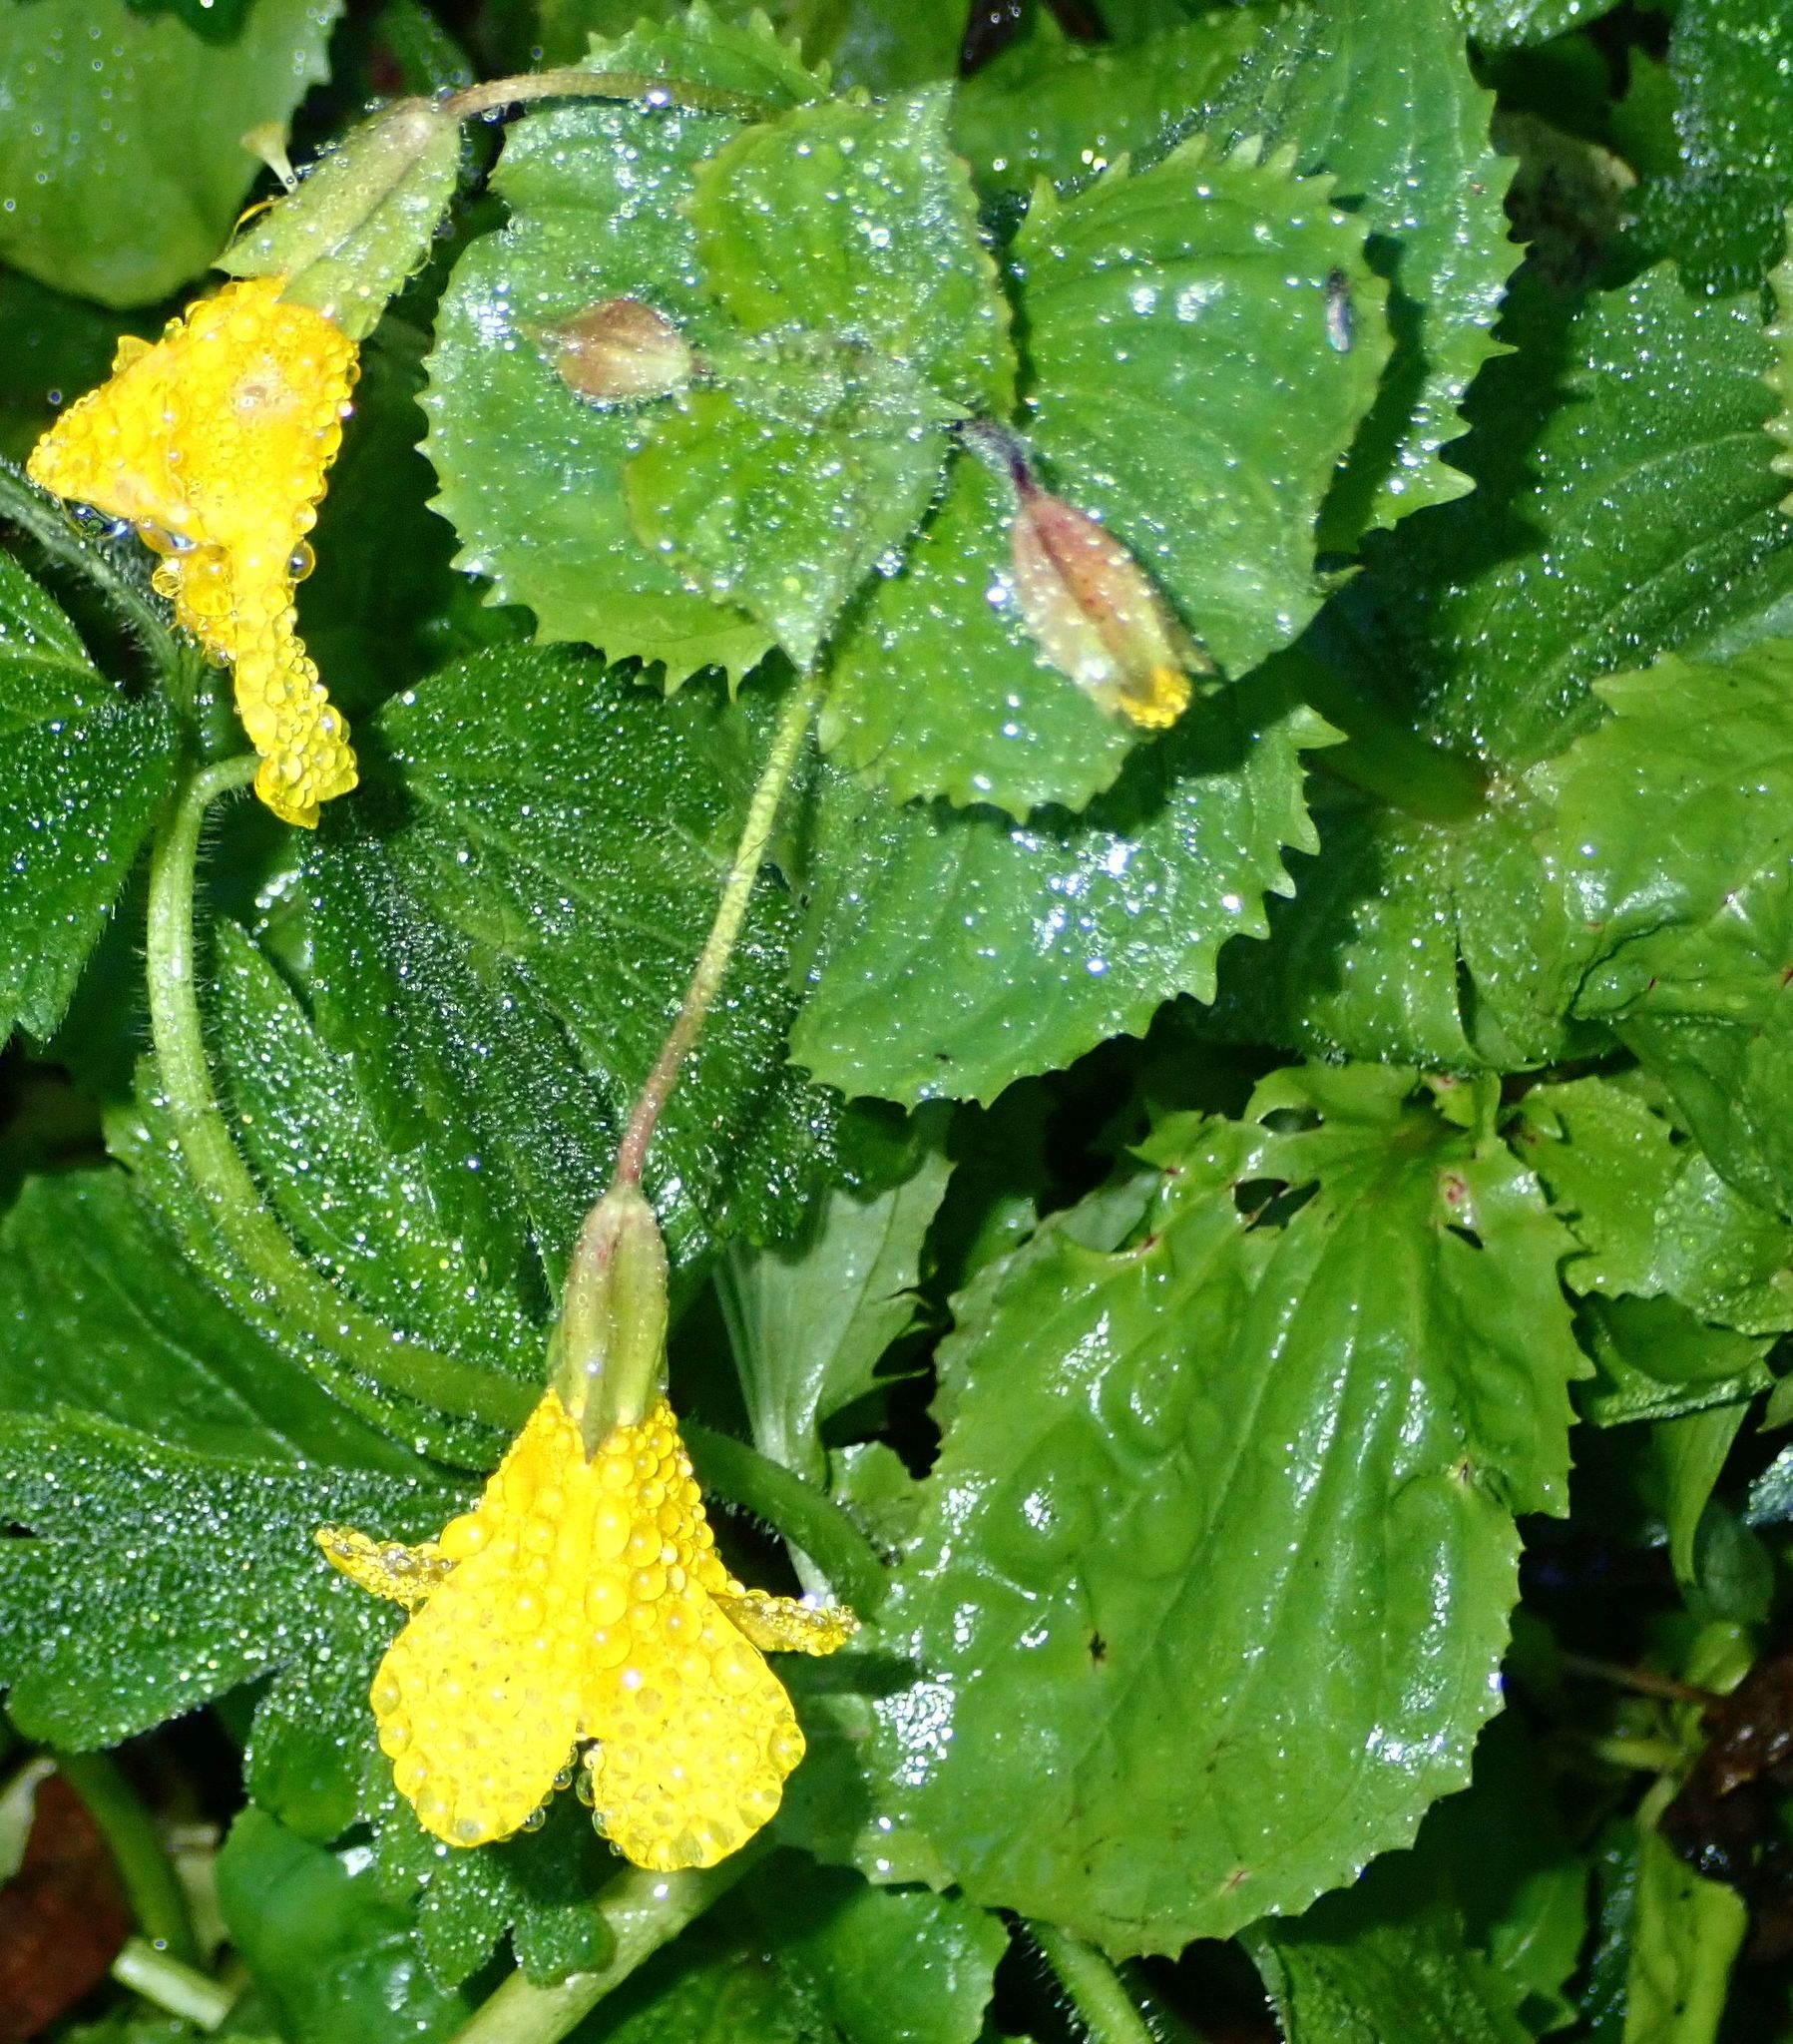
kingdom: Plantae
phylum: Tracheophyta
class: Magnoliopsida
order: Lamiales
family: Phrymaceae
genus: Erythranthe
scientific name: Erythranthe guttata
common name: Monkeyflower
